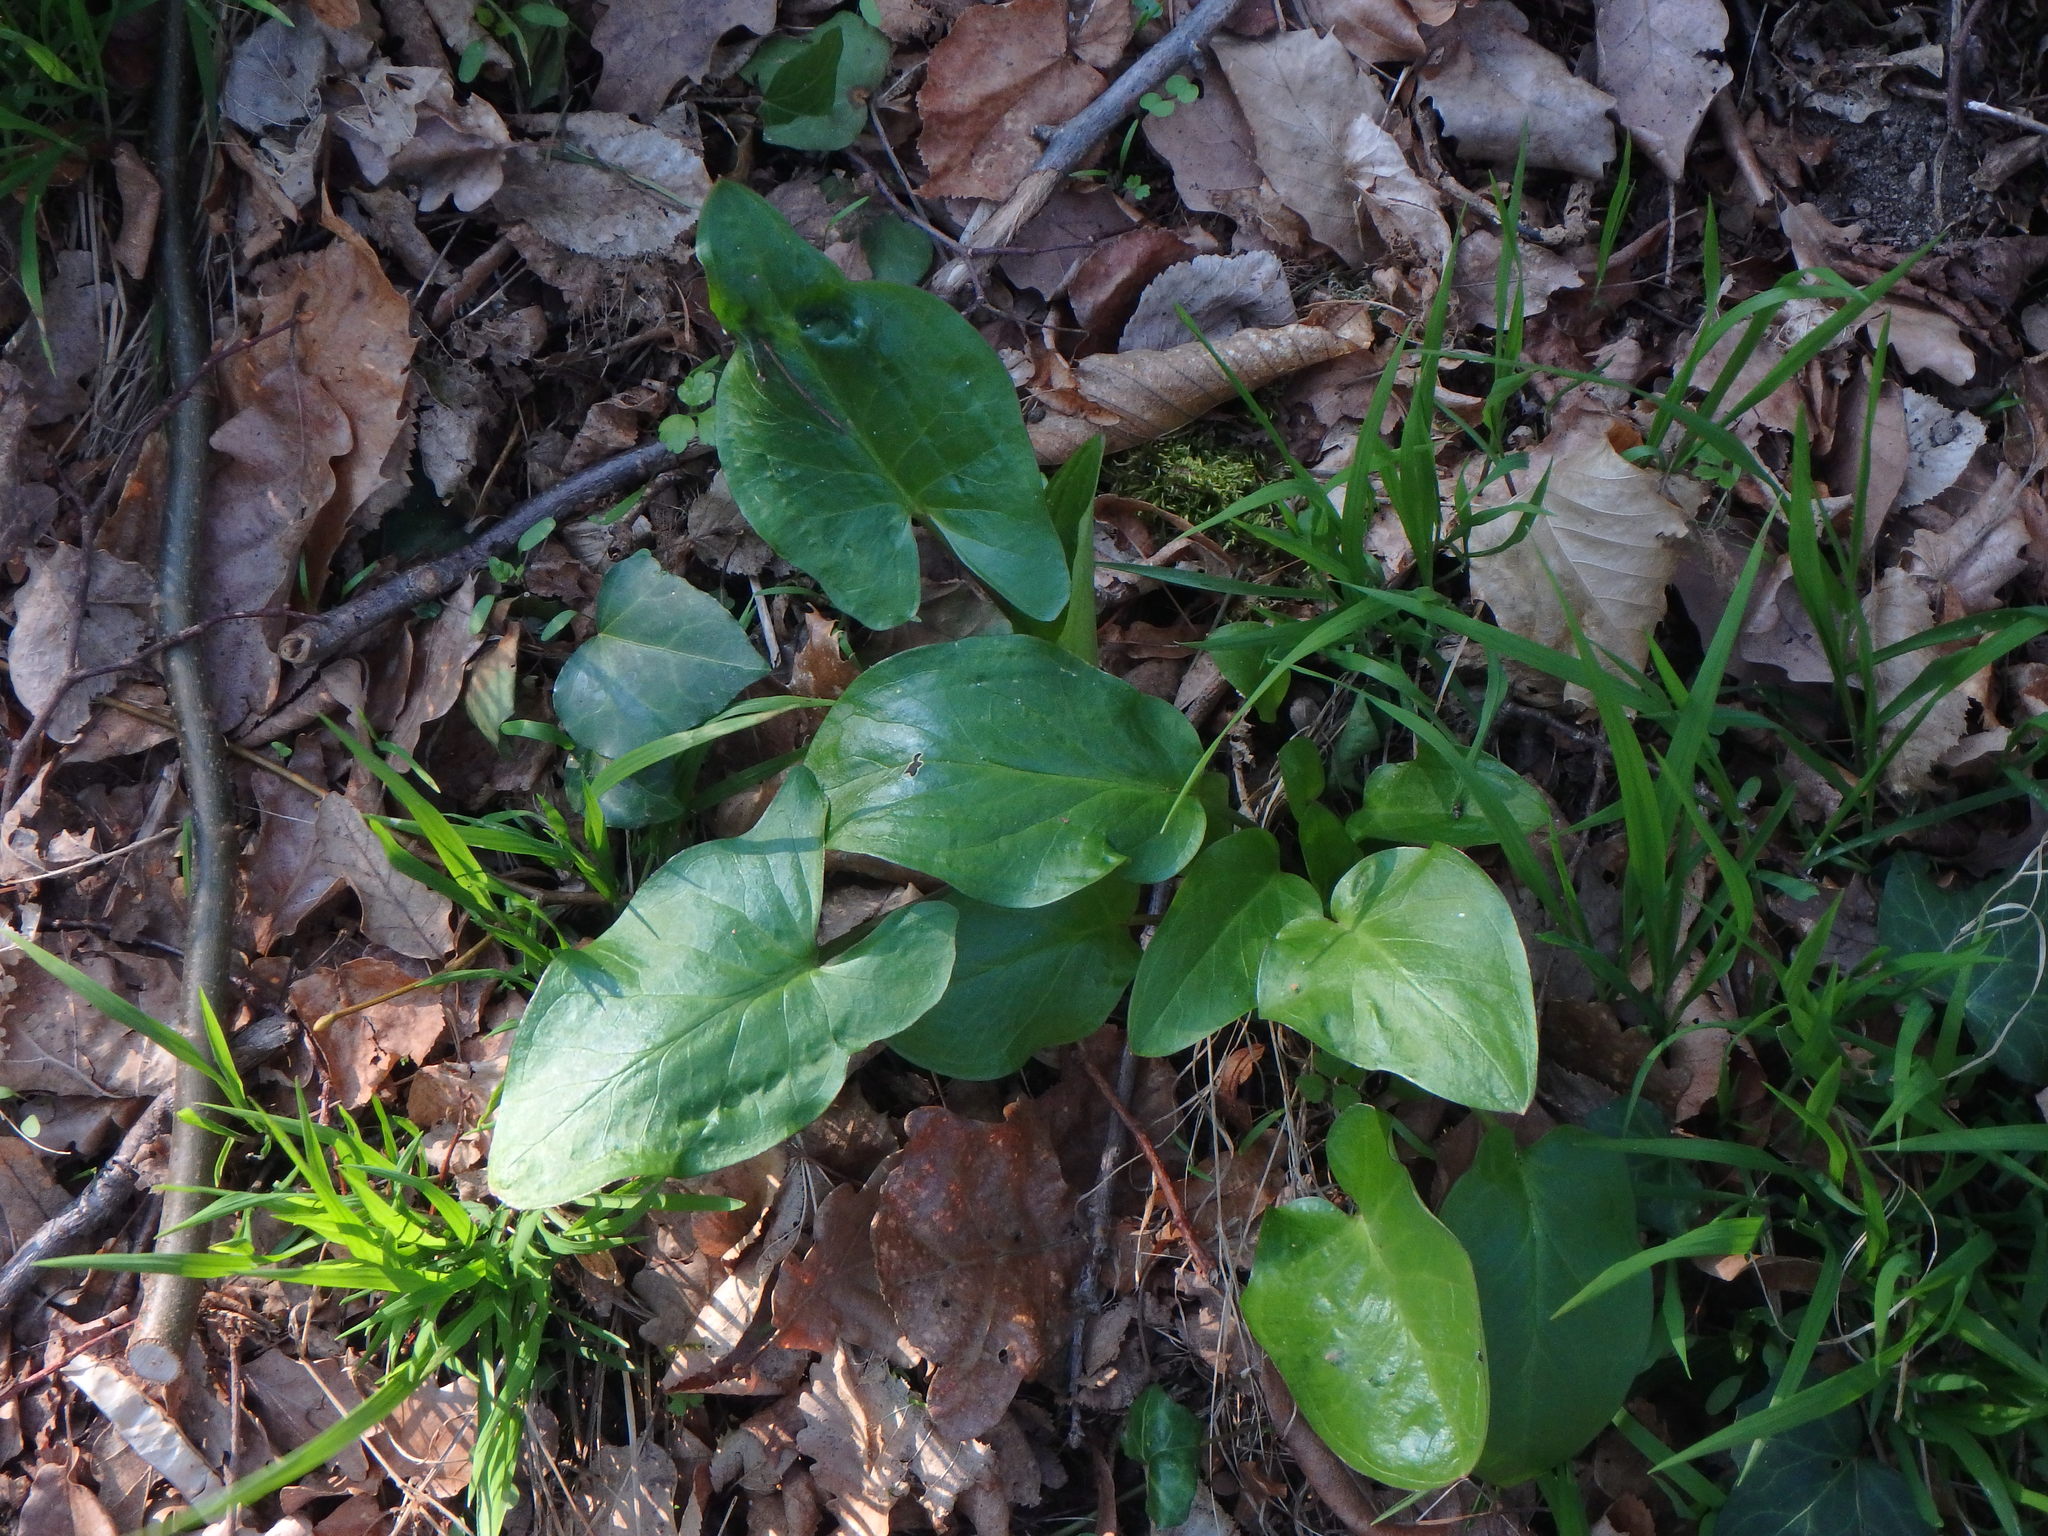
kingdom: Plantae
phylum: Tracheophyta
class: Liliopsida
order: Alismatales
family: Araceae
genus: Arum
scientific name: Arum maculatum
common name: Lords-and-ladies
